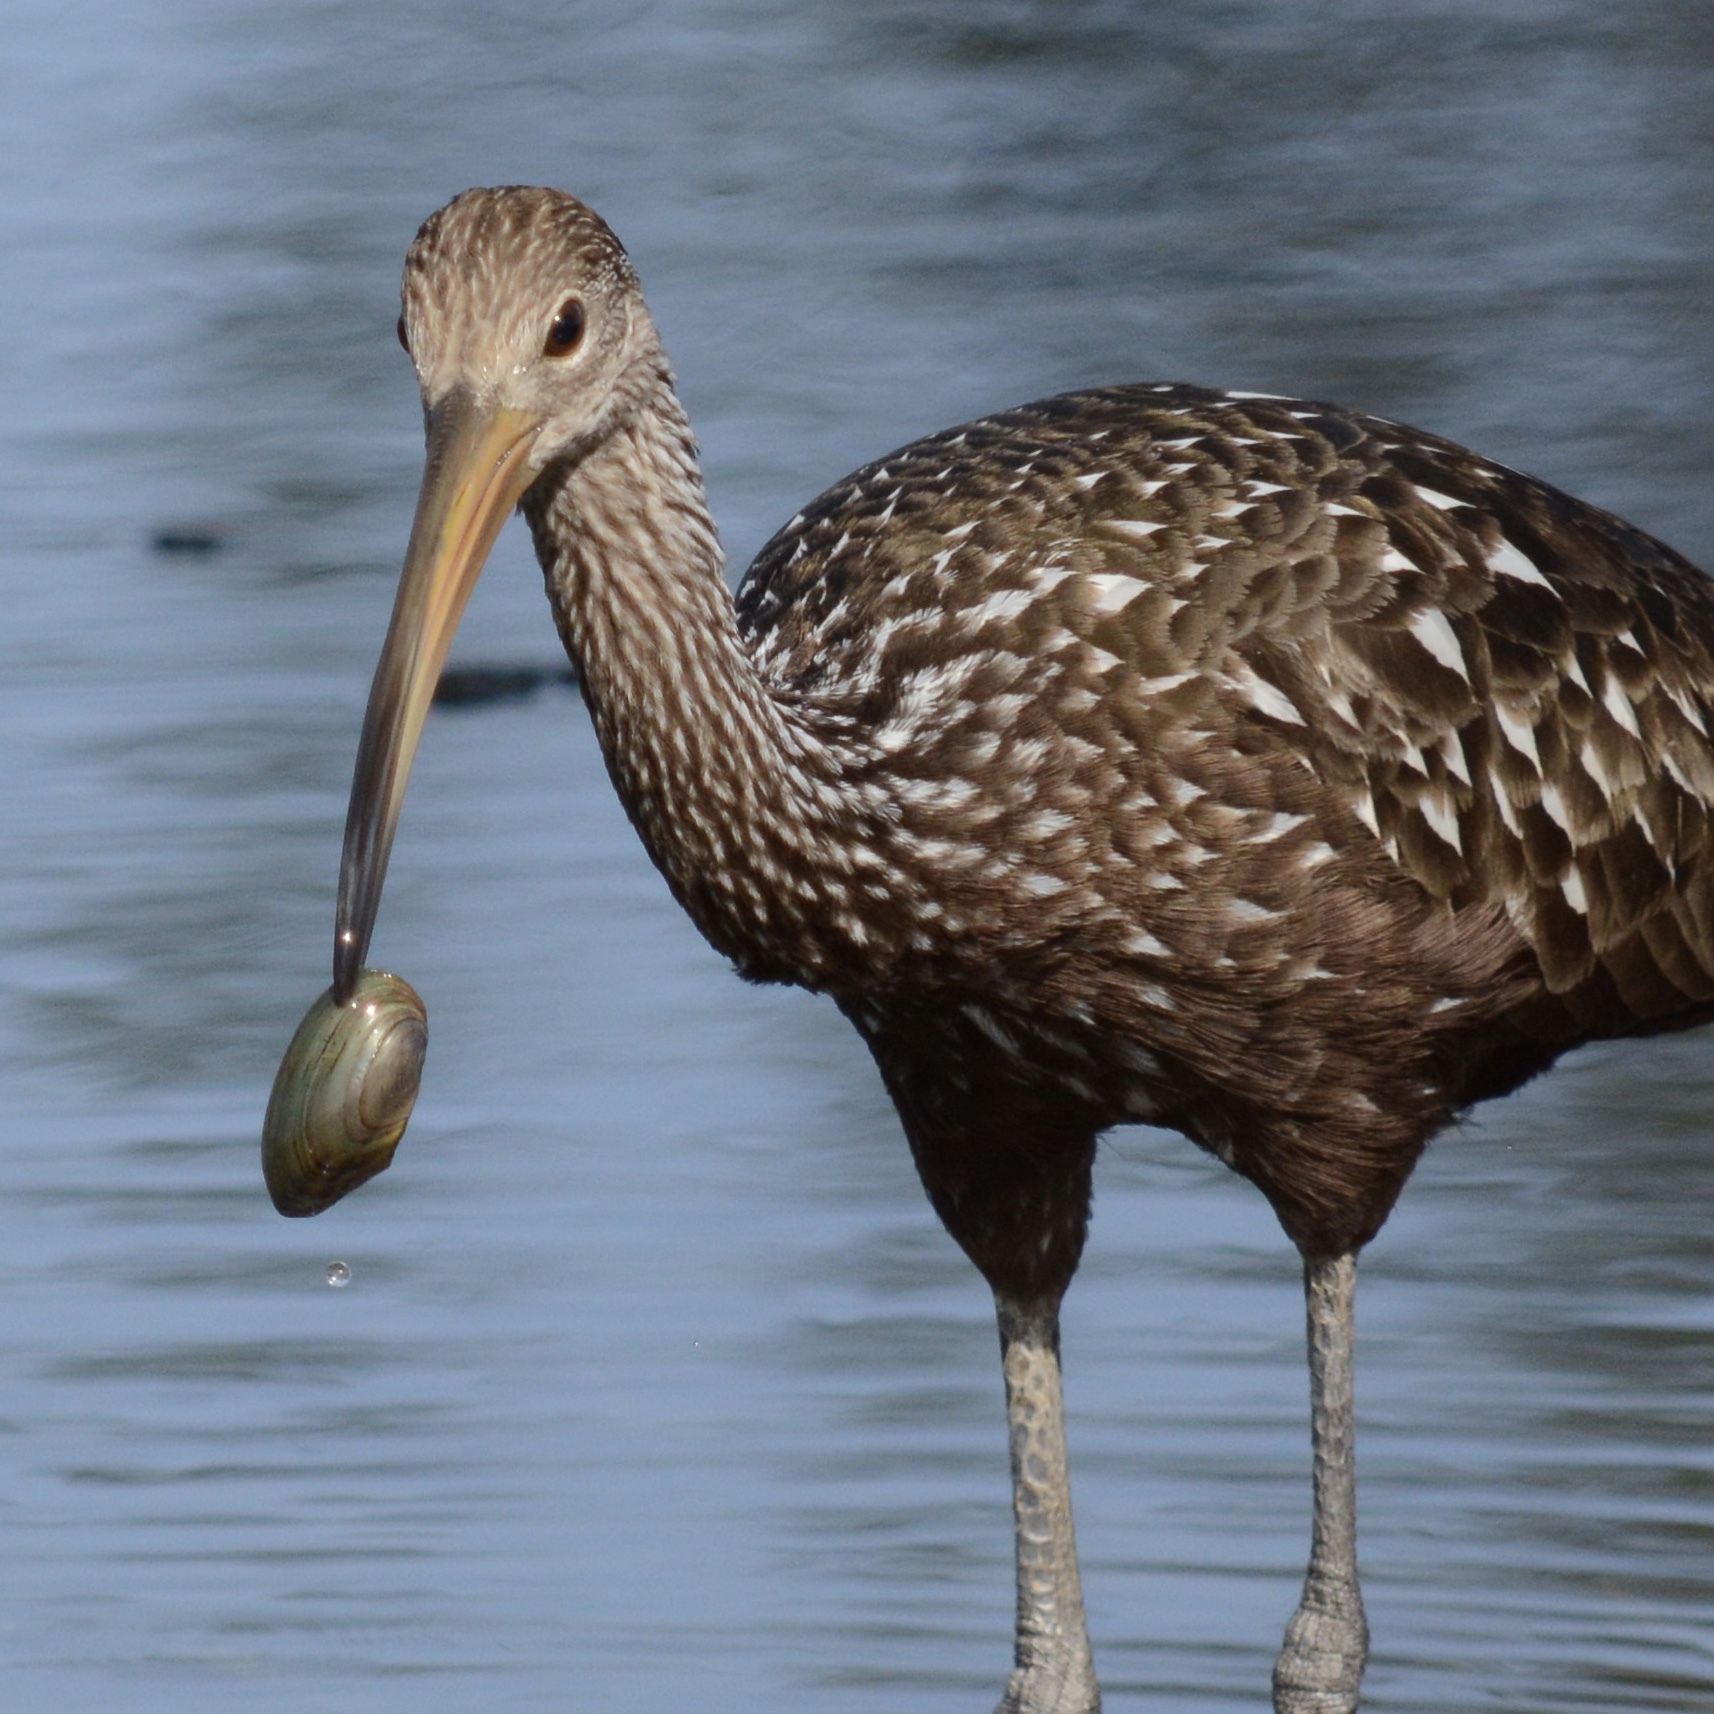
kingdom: Animalia
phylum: Chordata
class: Aves
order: Gruiformes
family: Aramidae
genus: Aramus
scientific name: Aramus guarauna
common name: Limpkin
